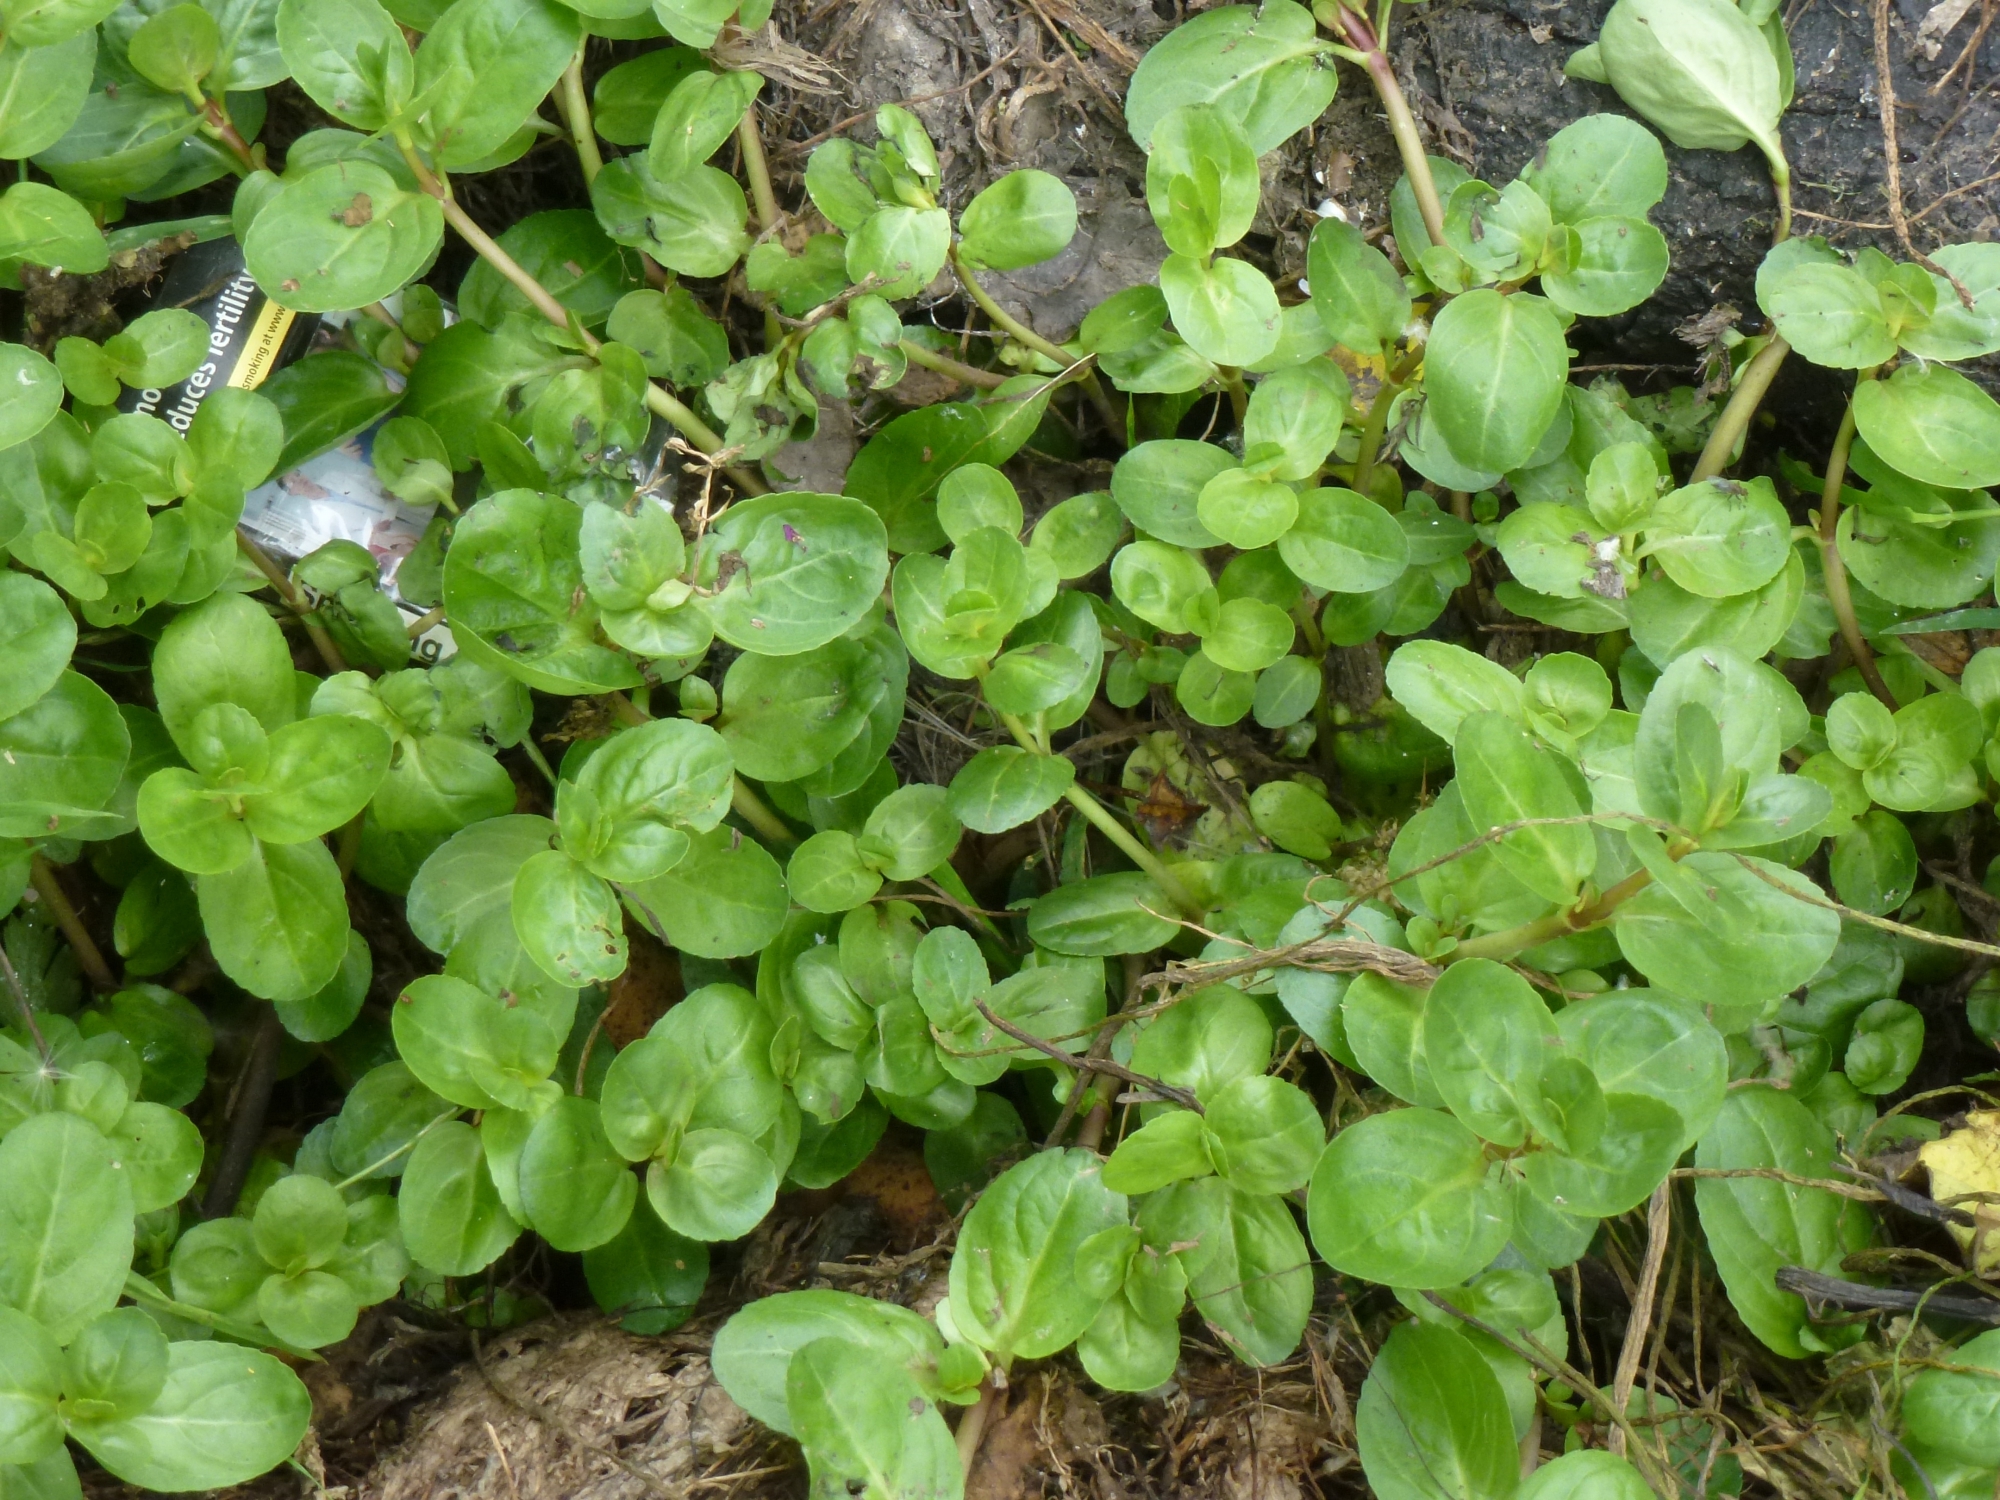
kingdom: Plantae
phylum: Tracheophyta
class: Magnoliopsida
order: Lamiales
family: Plantaginaceae
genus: Veronica
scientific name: Veronica beccabunga
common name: Brooklime
